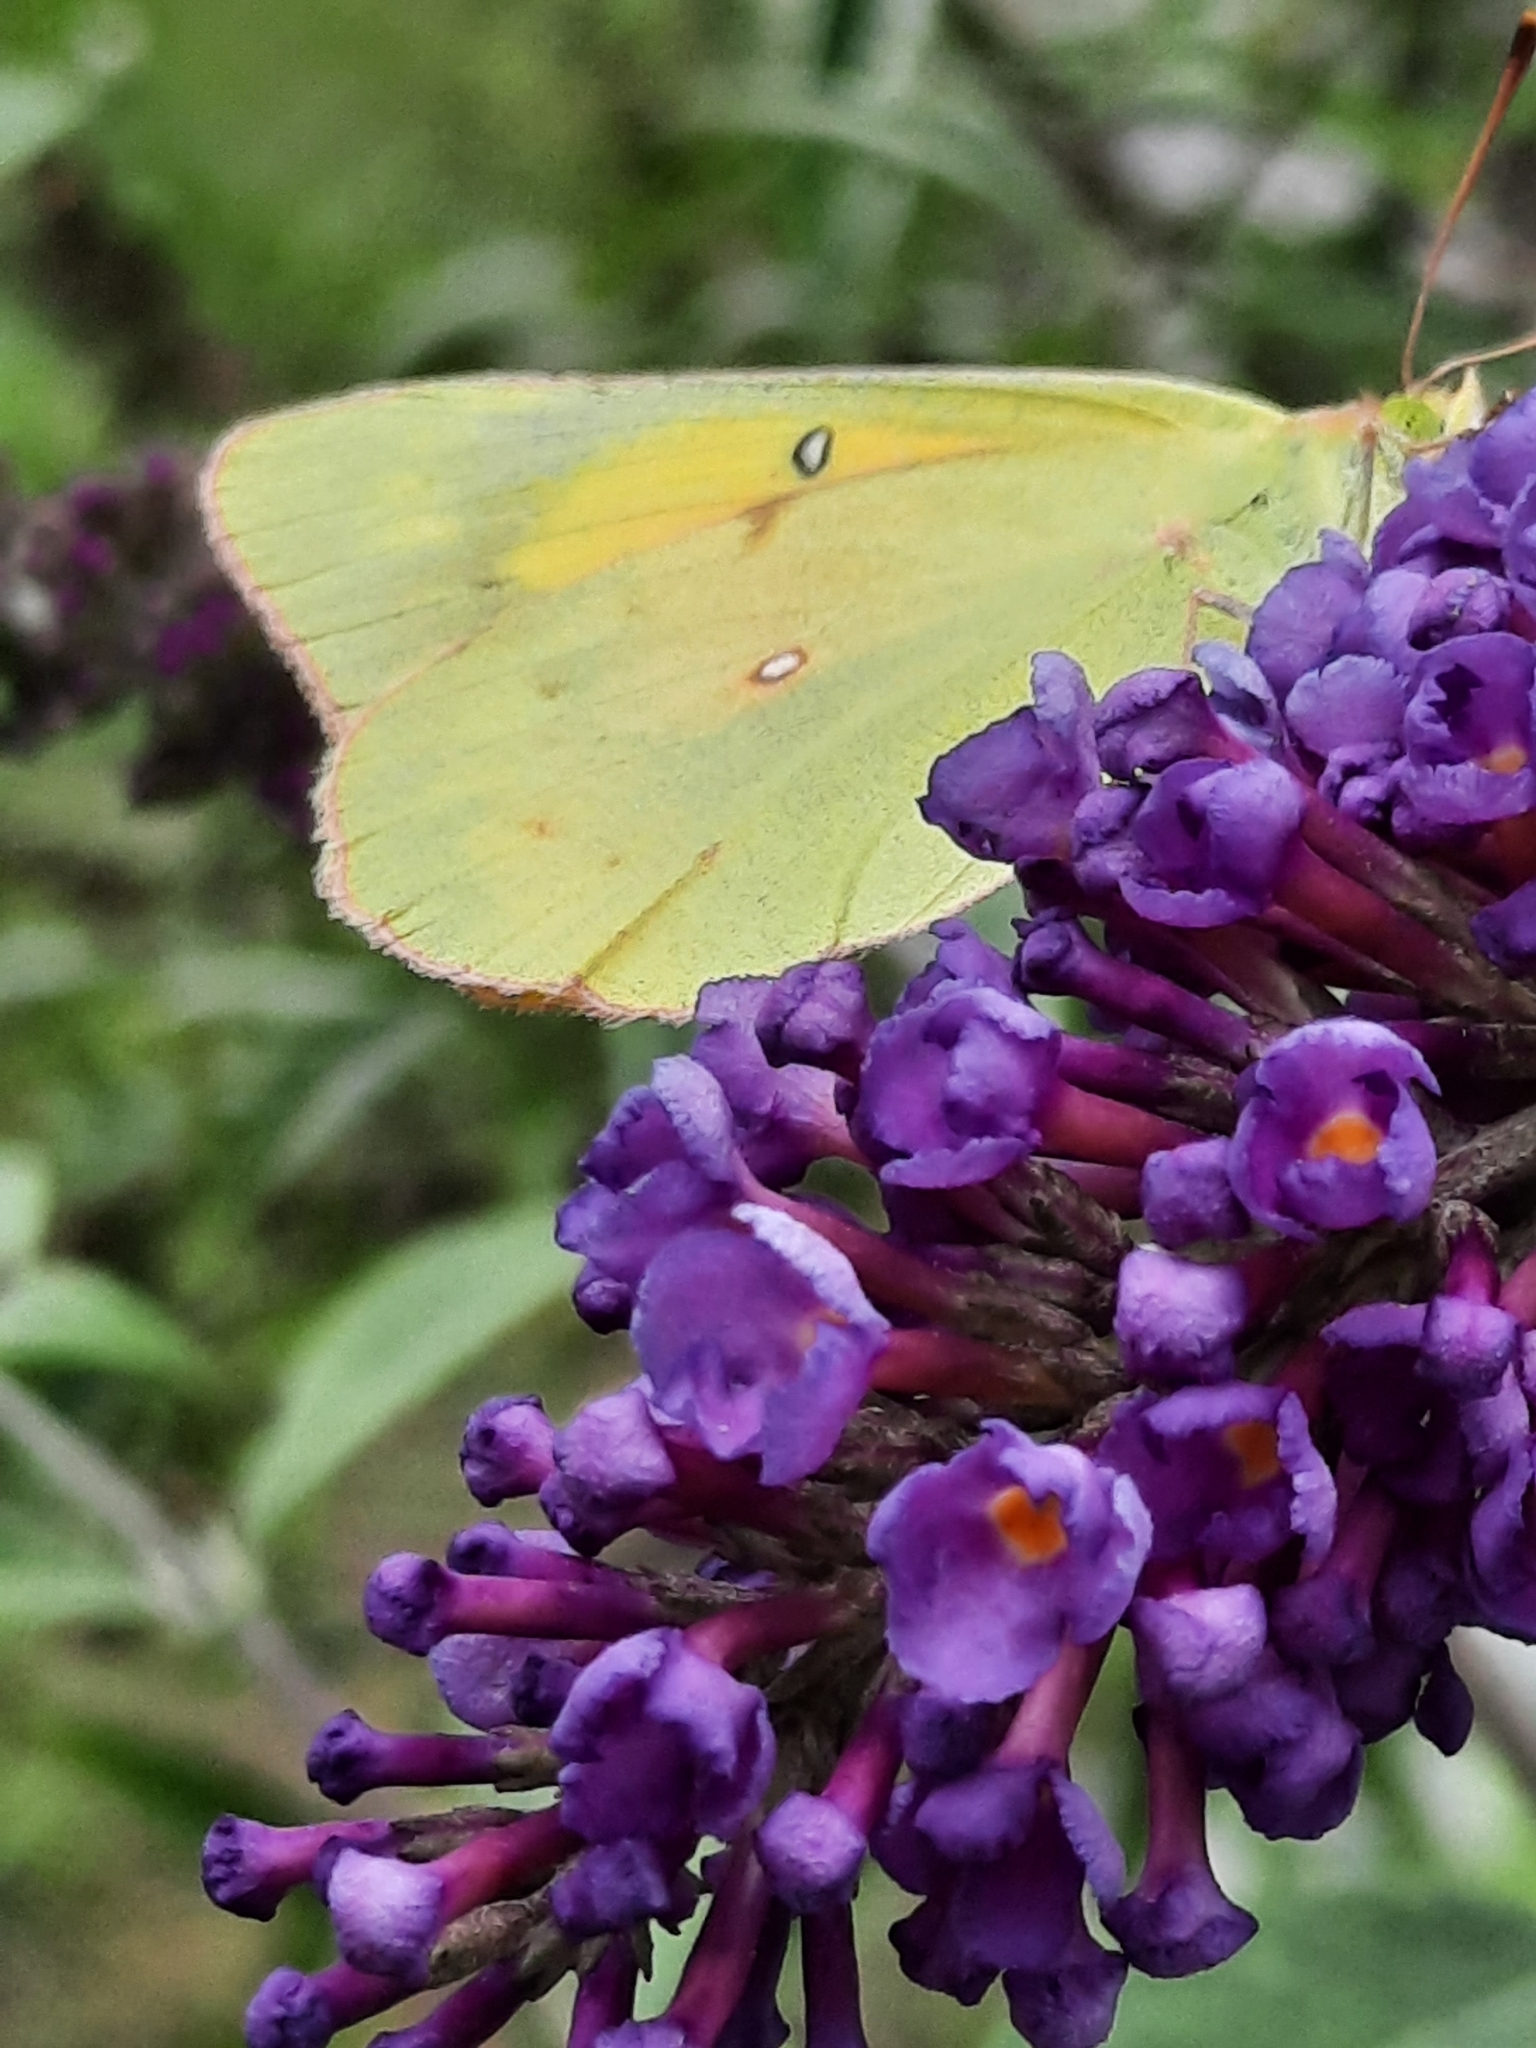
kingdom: Animalia
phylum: Arthropoda
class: Insecta
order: Lepidoptera
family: Pieridae
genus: Colias
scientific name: Colias eurytheme
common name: Alfalfa butterfly
